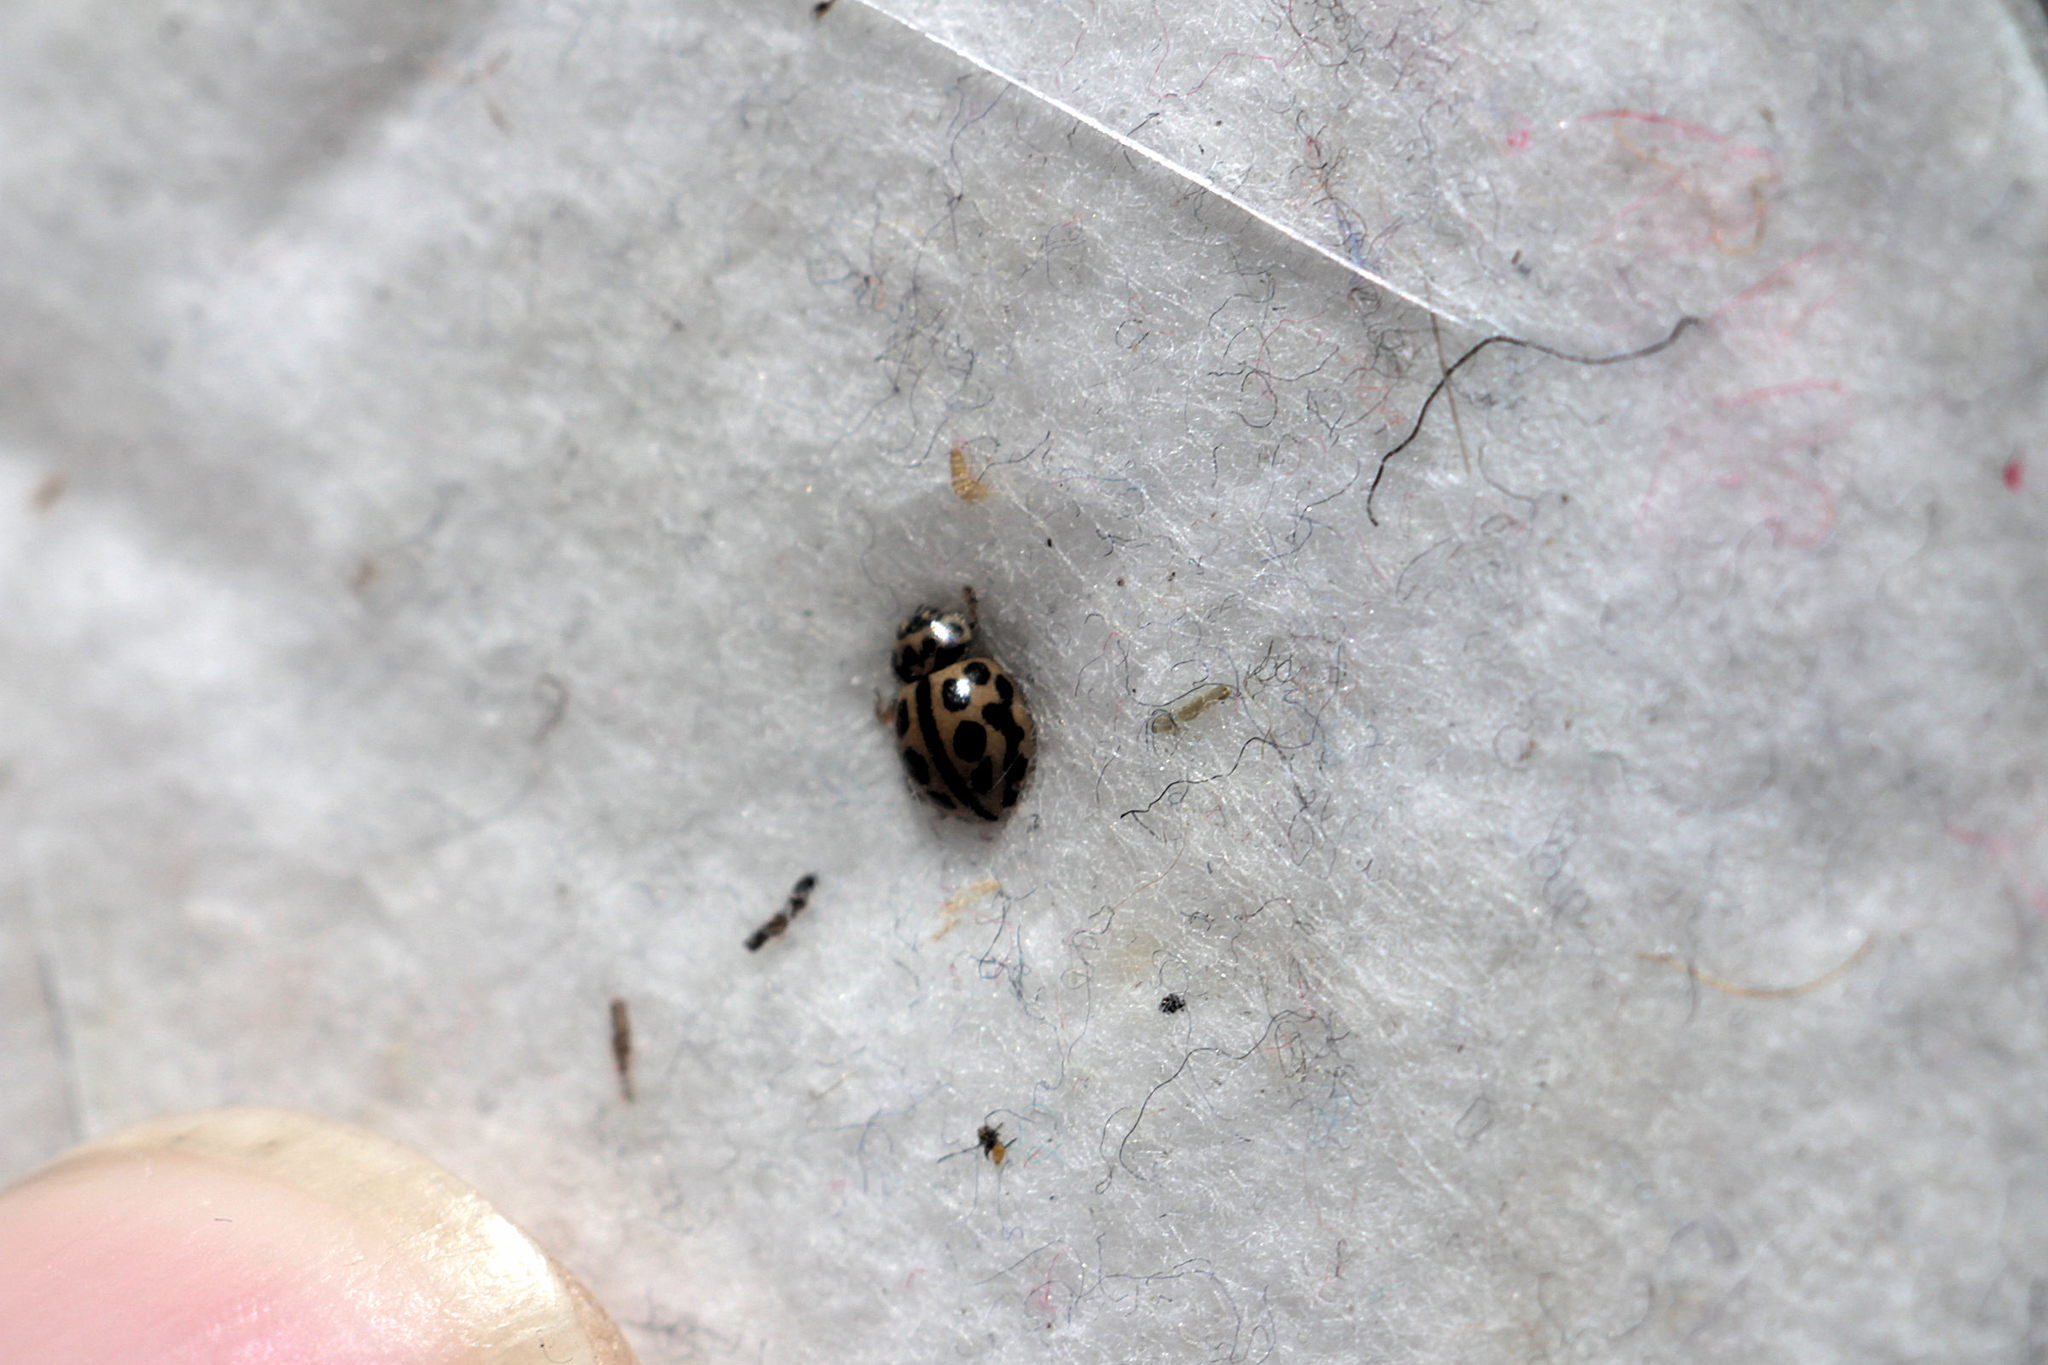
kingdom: Animalia
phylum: Arthropoda
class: Insecta
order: Coleoptera
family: Coccinellidae
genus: Tytthaspis
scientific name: Tytthaspis sedecimpunctata
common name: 16-spot ladybird
